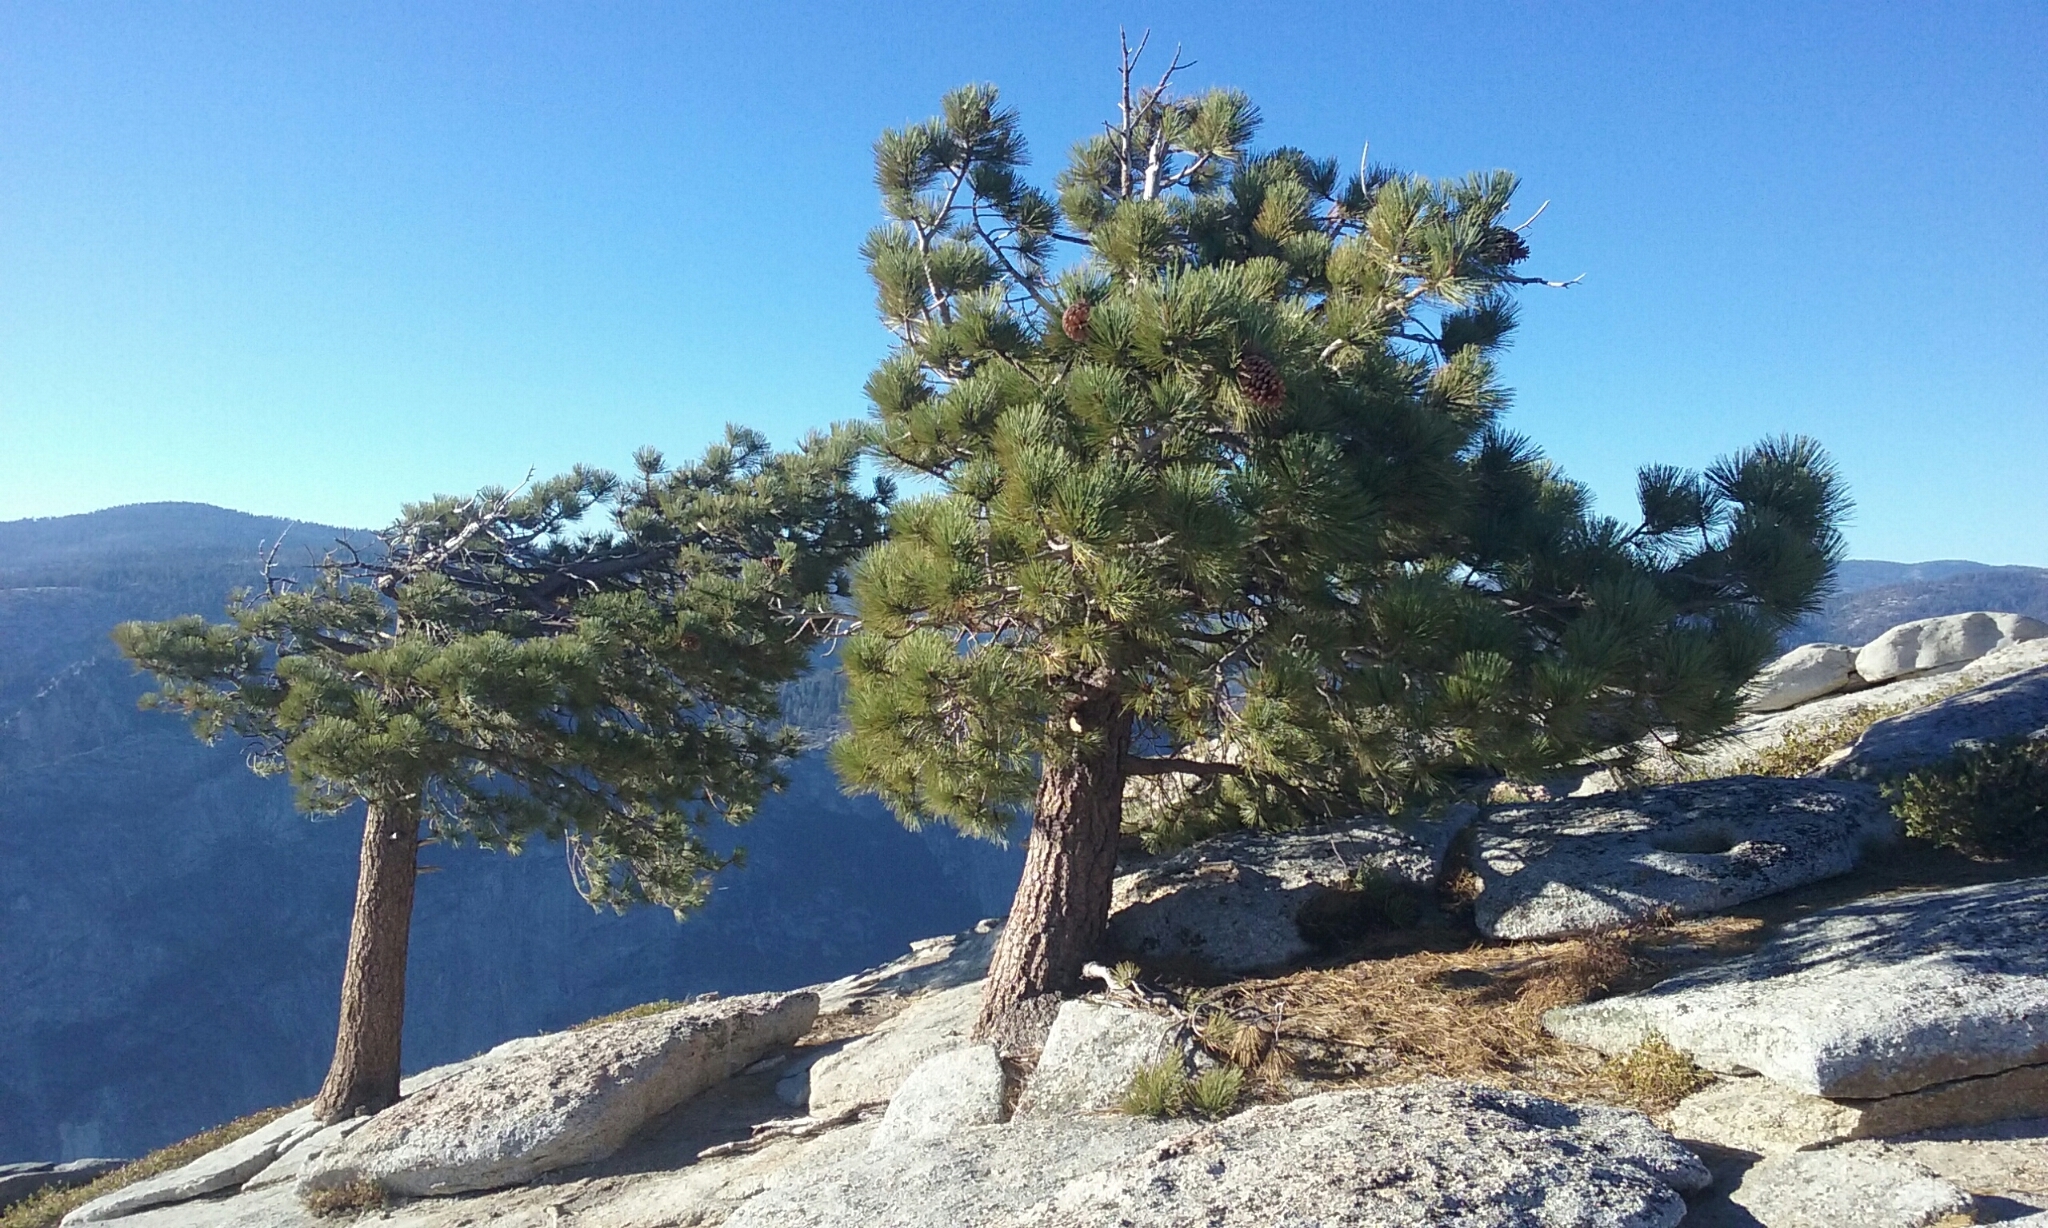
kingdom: Plantae
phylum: Tracheophyta
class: Pinopsida
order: Pinales
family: Pinaceae
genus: Pinus
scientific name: Pinus jeffreyi
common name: Jeffrey pine
